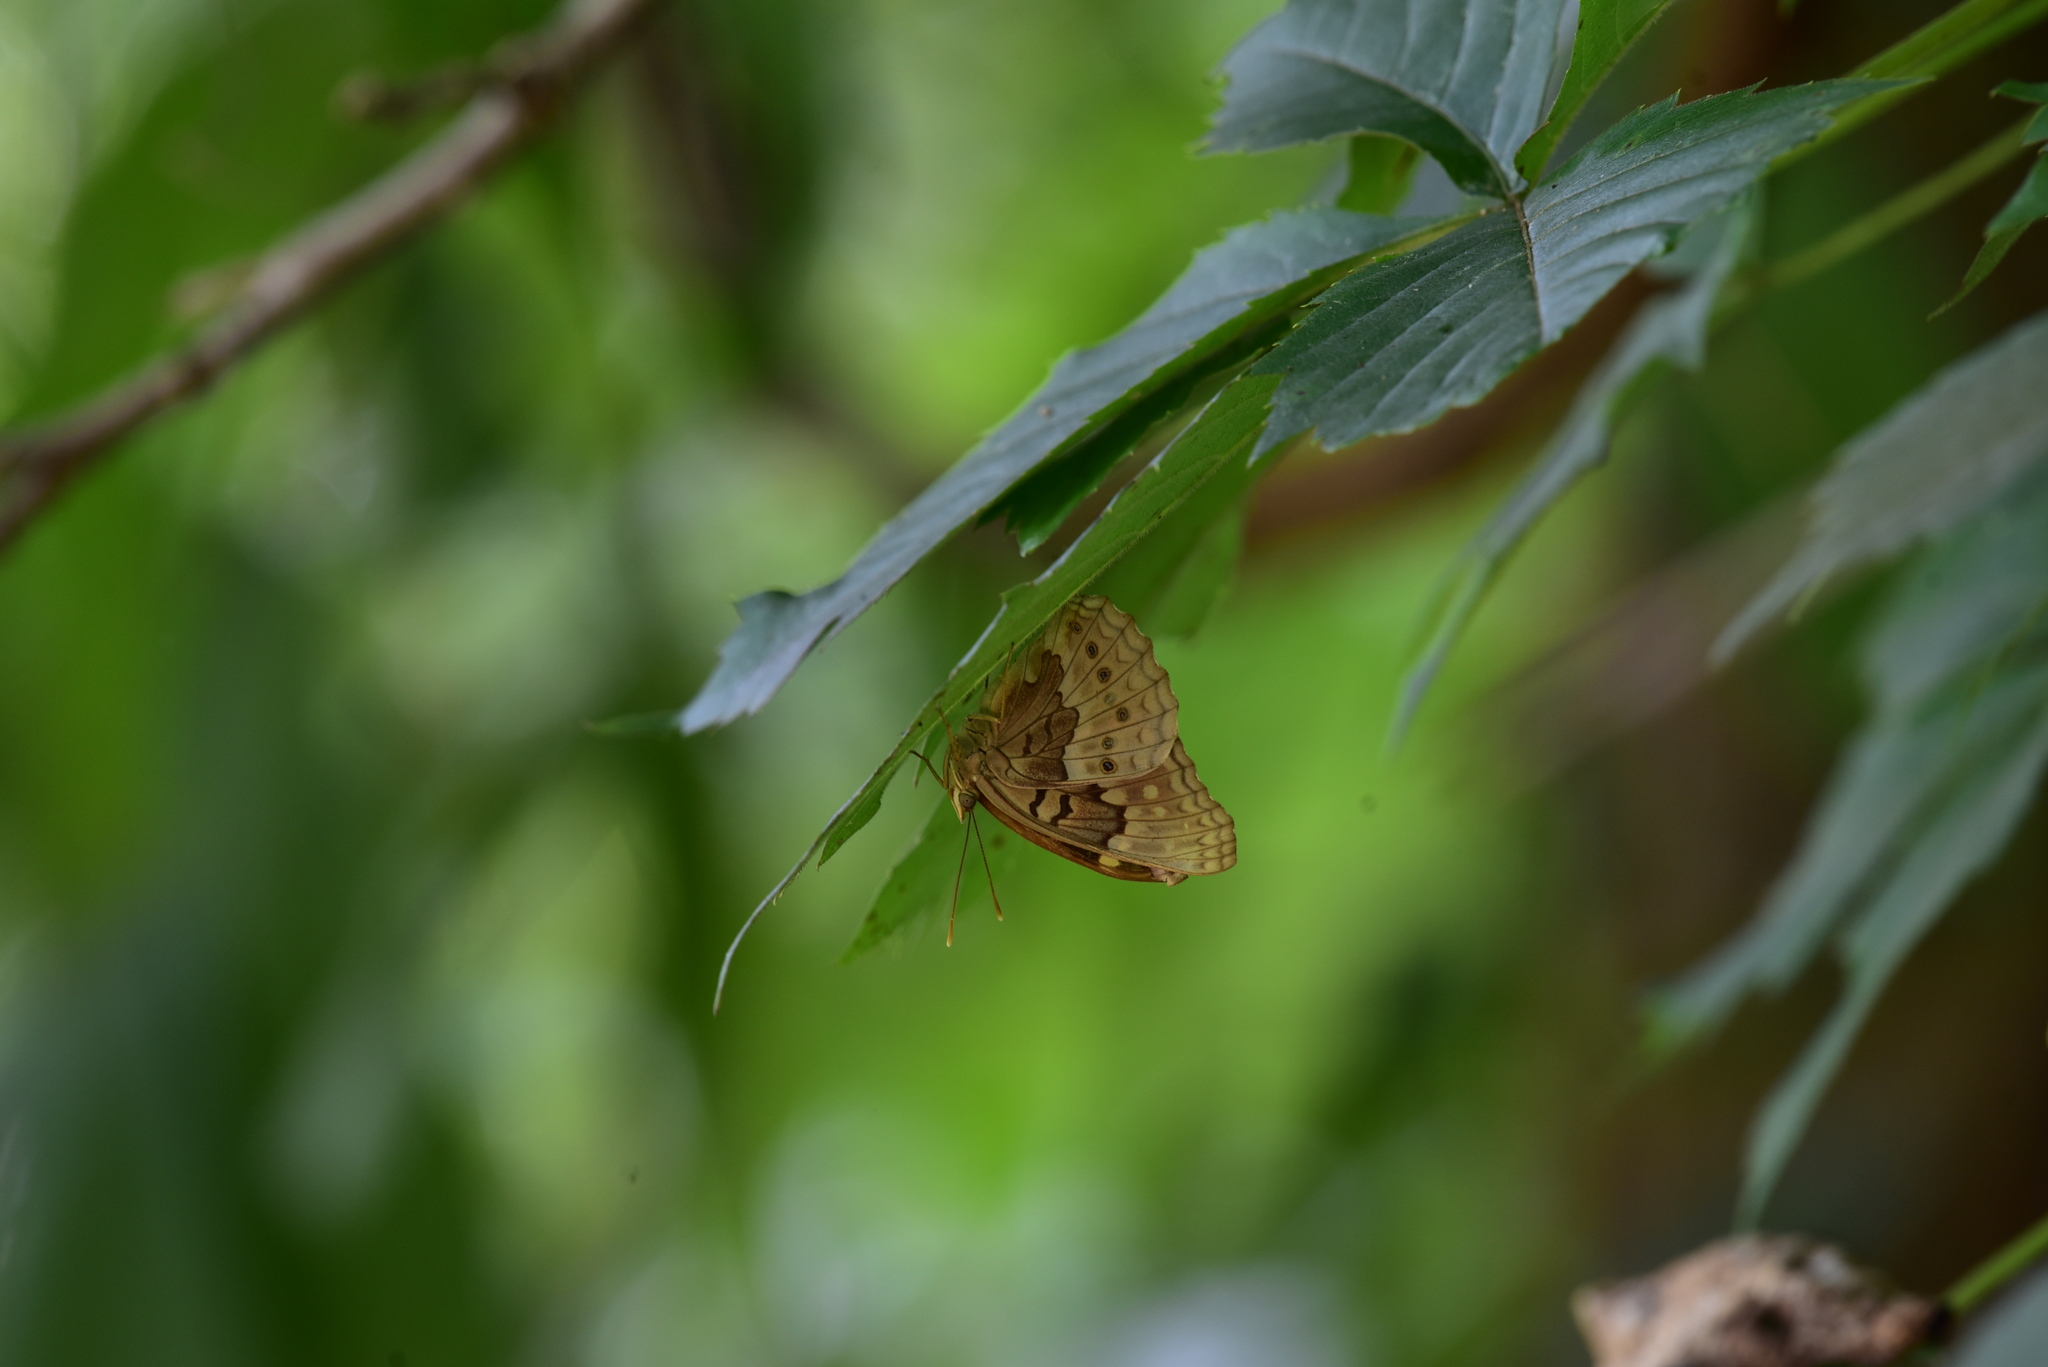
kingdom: Animalia
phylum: Arthropoda
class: Insecta
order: Lepidoptera
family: Nymphalidae
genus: Asterocampa
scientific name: Asterocampa clyton
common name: Tawny emperor
